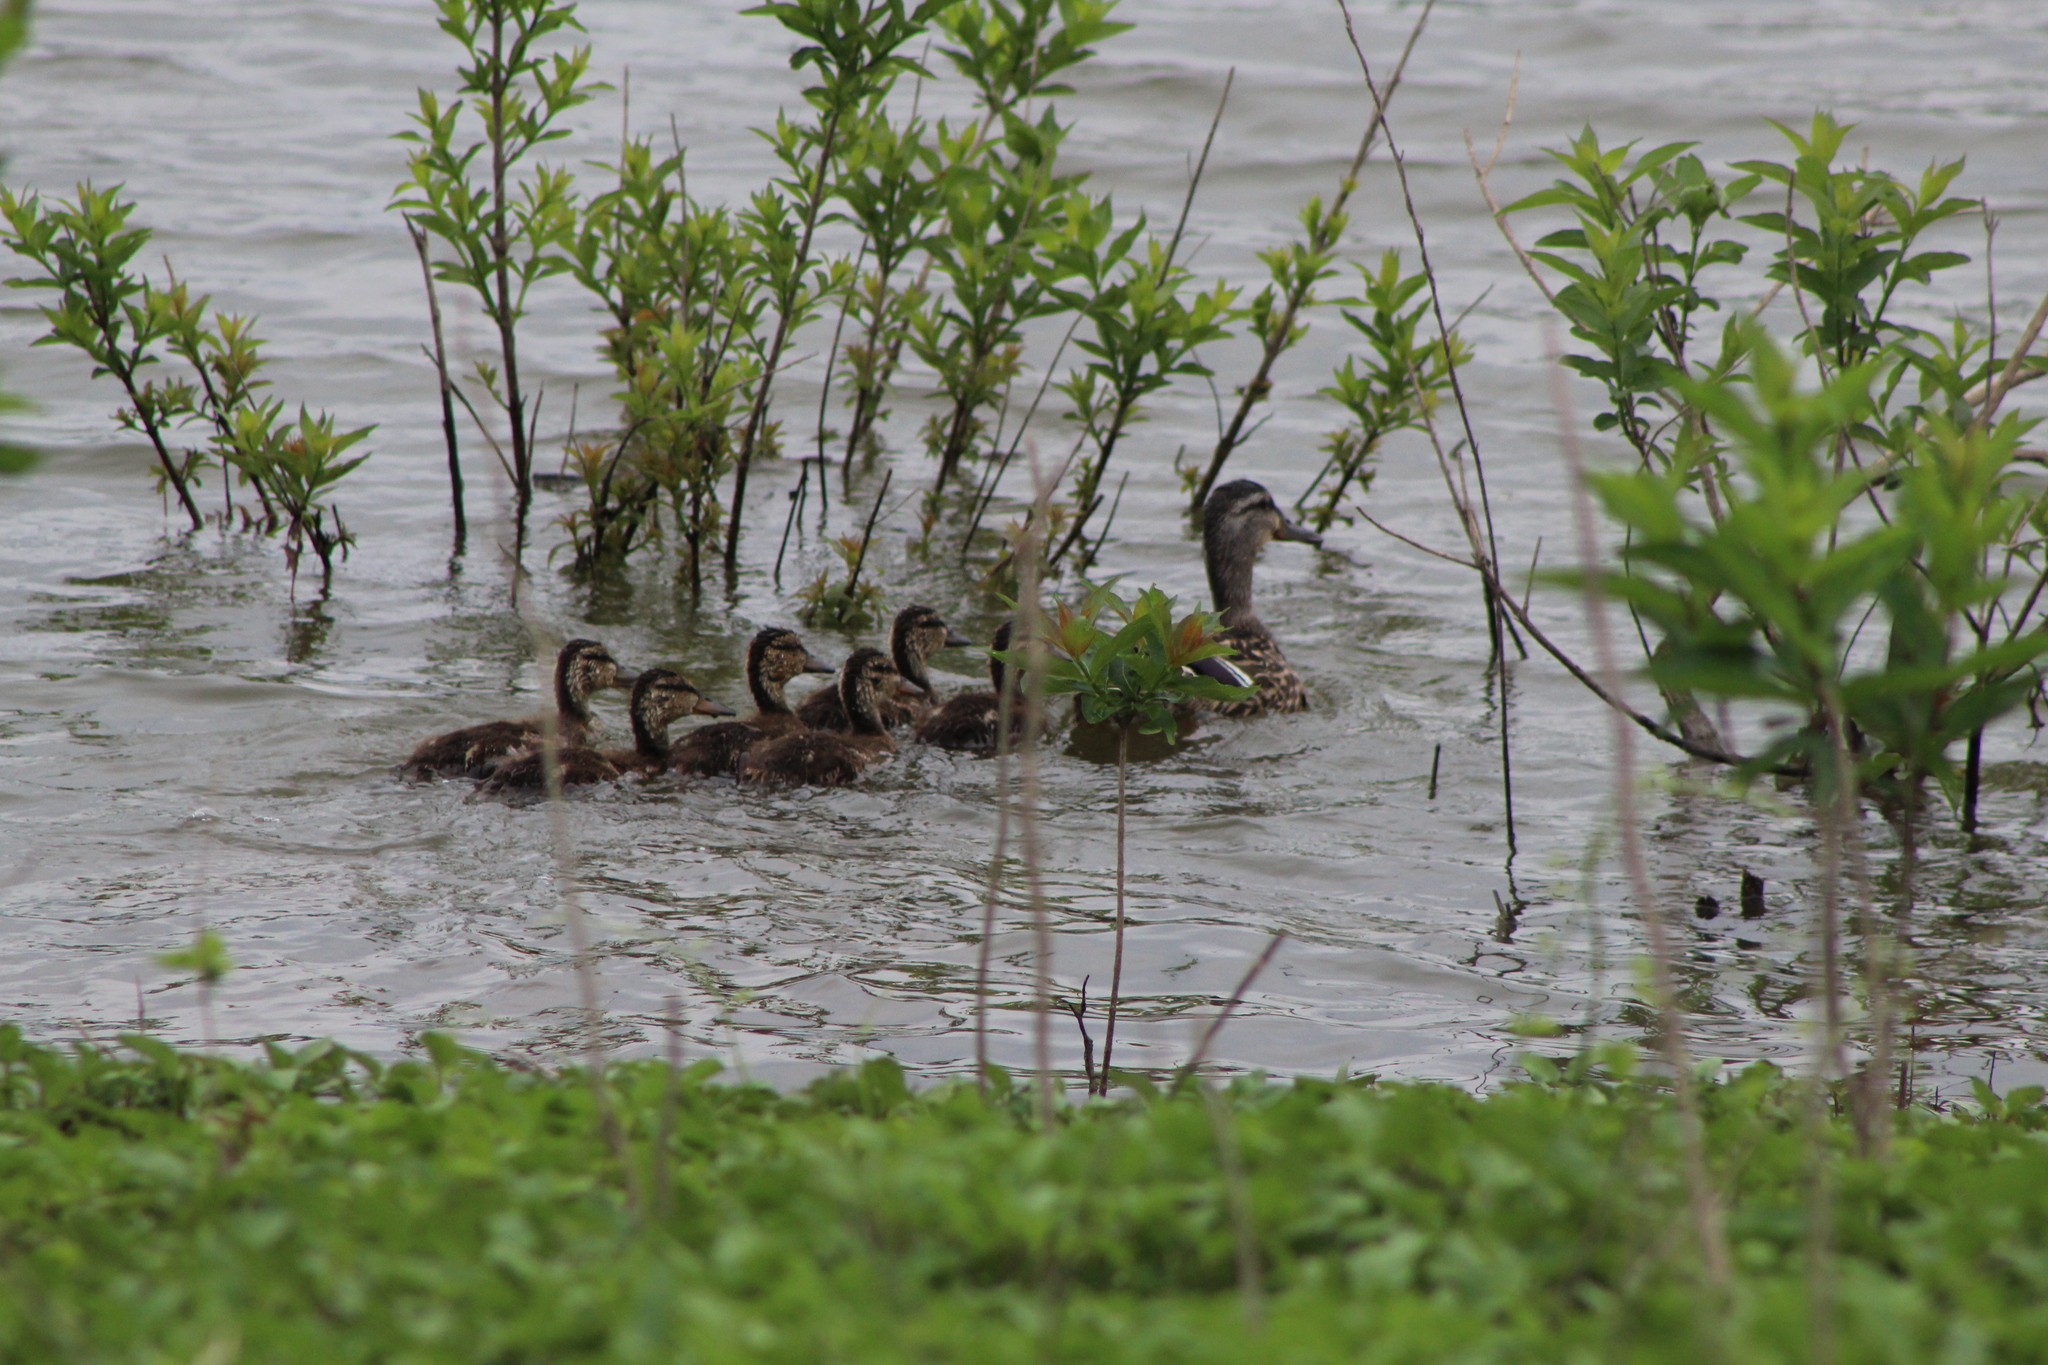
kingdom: Animalia
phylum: Chordata
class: Aves
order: Anseriformes
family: Anatidae
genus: Anas
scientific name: Anas platyrhynchos
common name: Mallard
